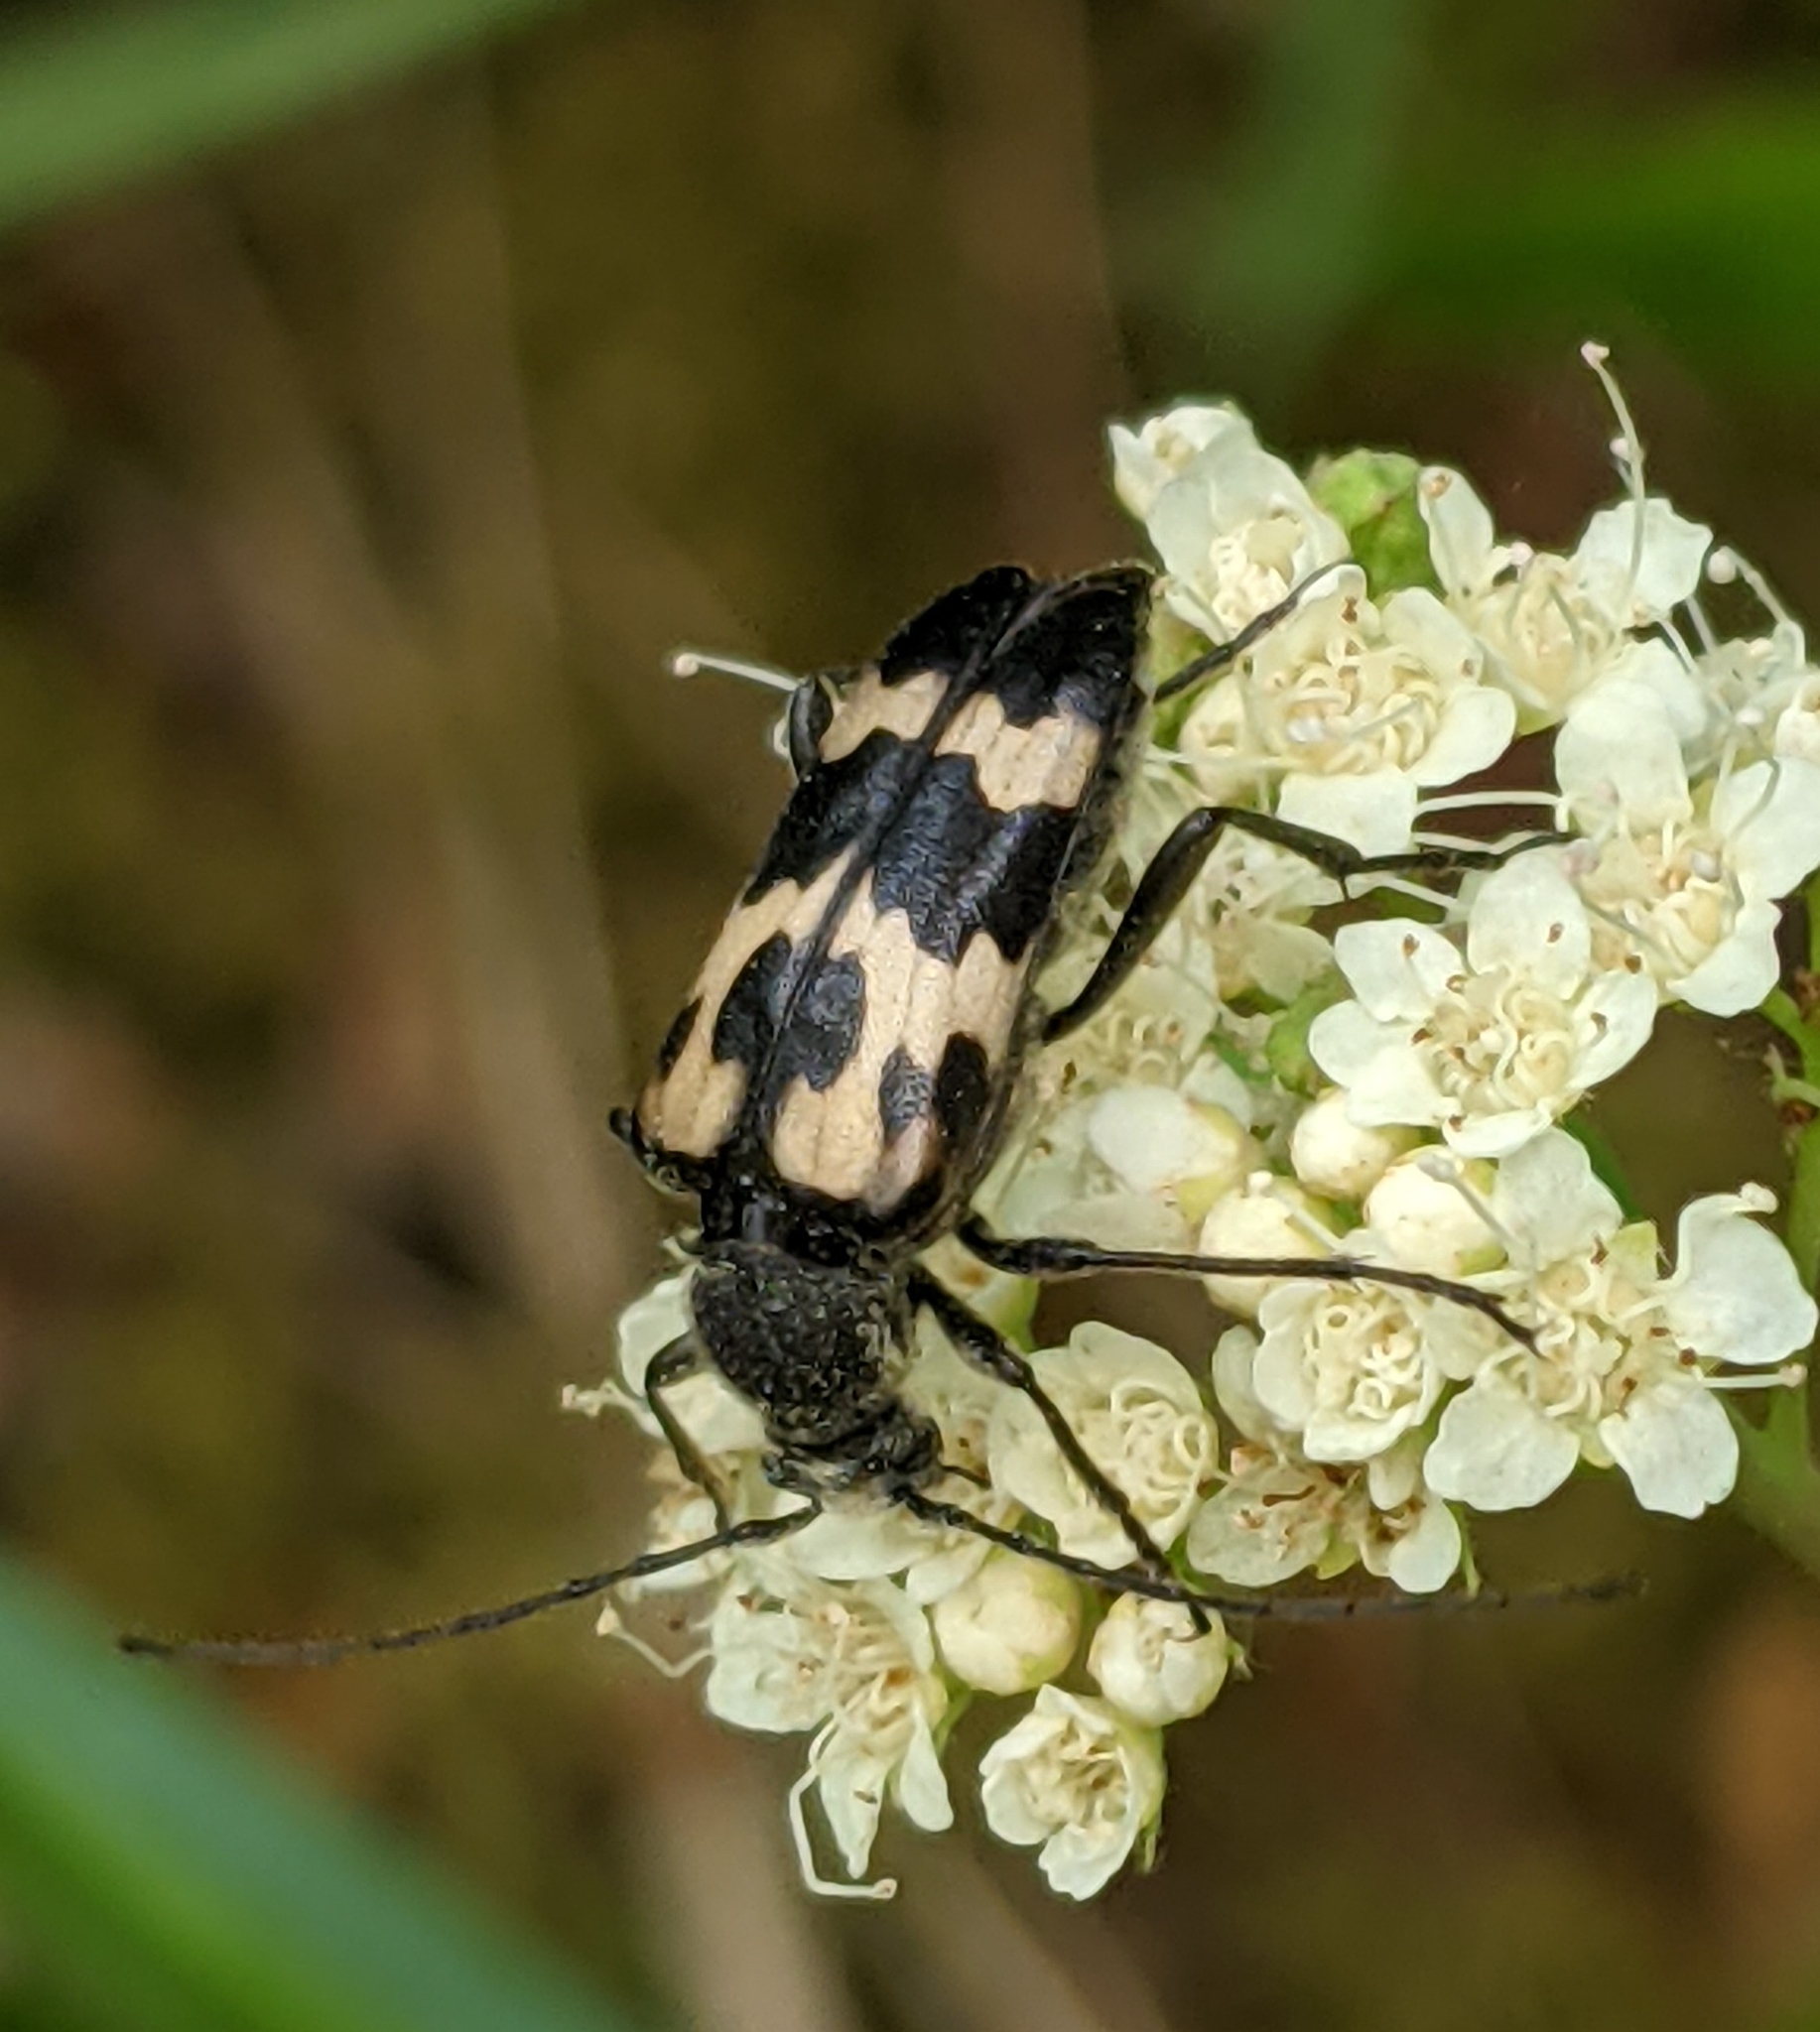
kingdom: Animalia
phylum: Arthropoda
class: Insecta
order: Coleoptera
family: Cerambycidae
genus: Judolia
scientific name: Judolia montivagans
